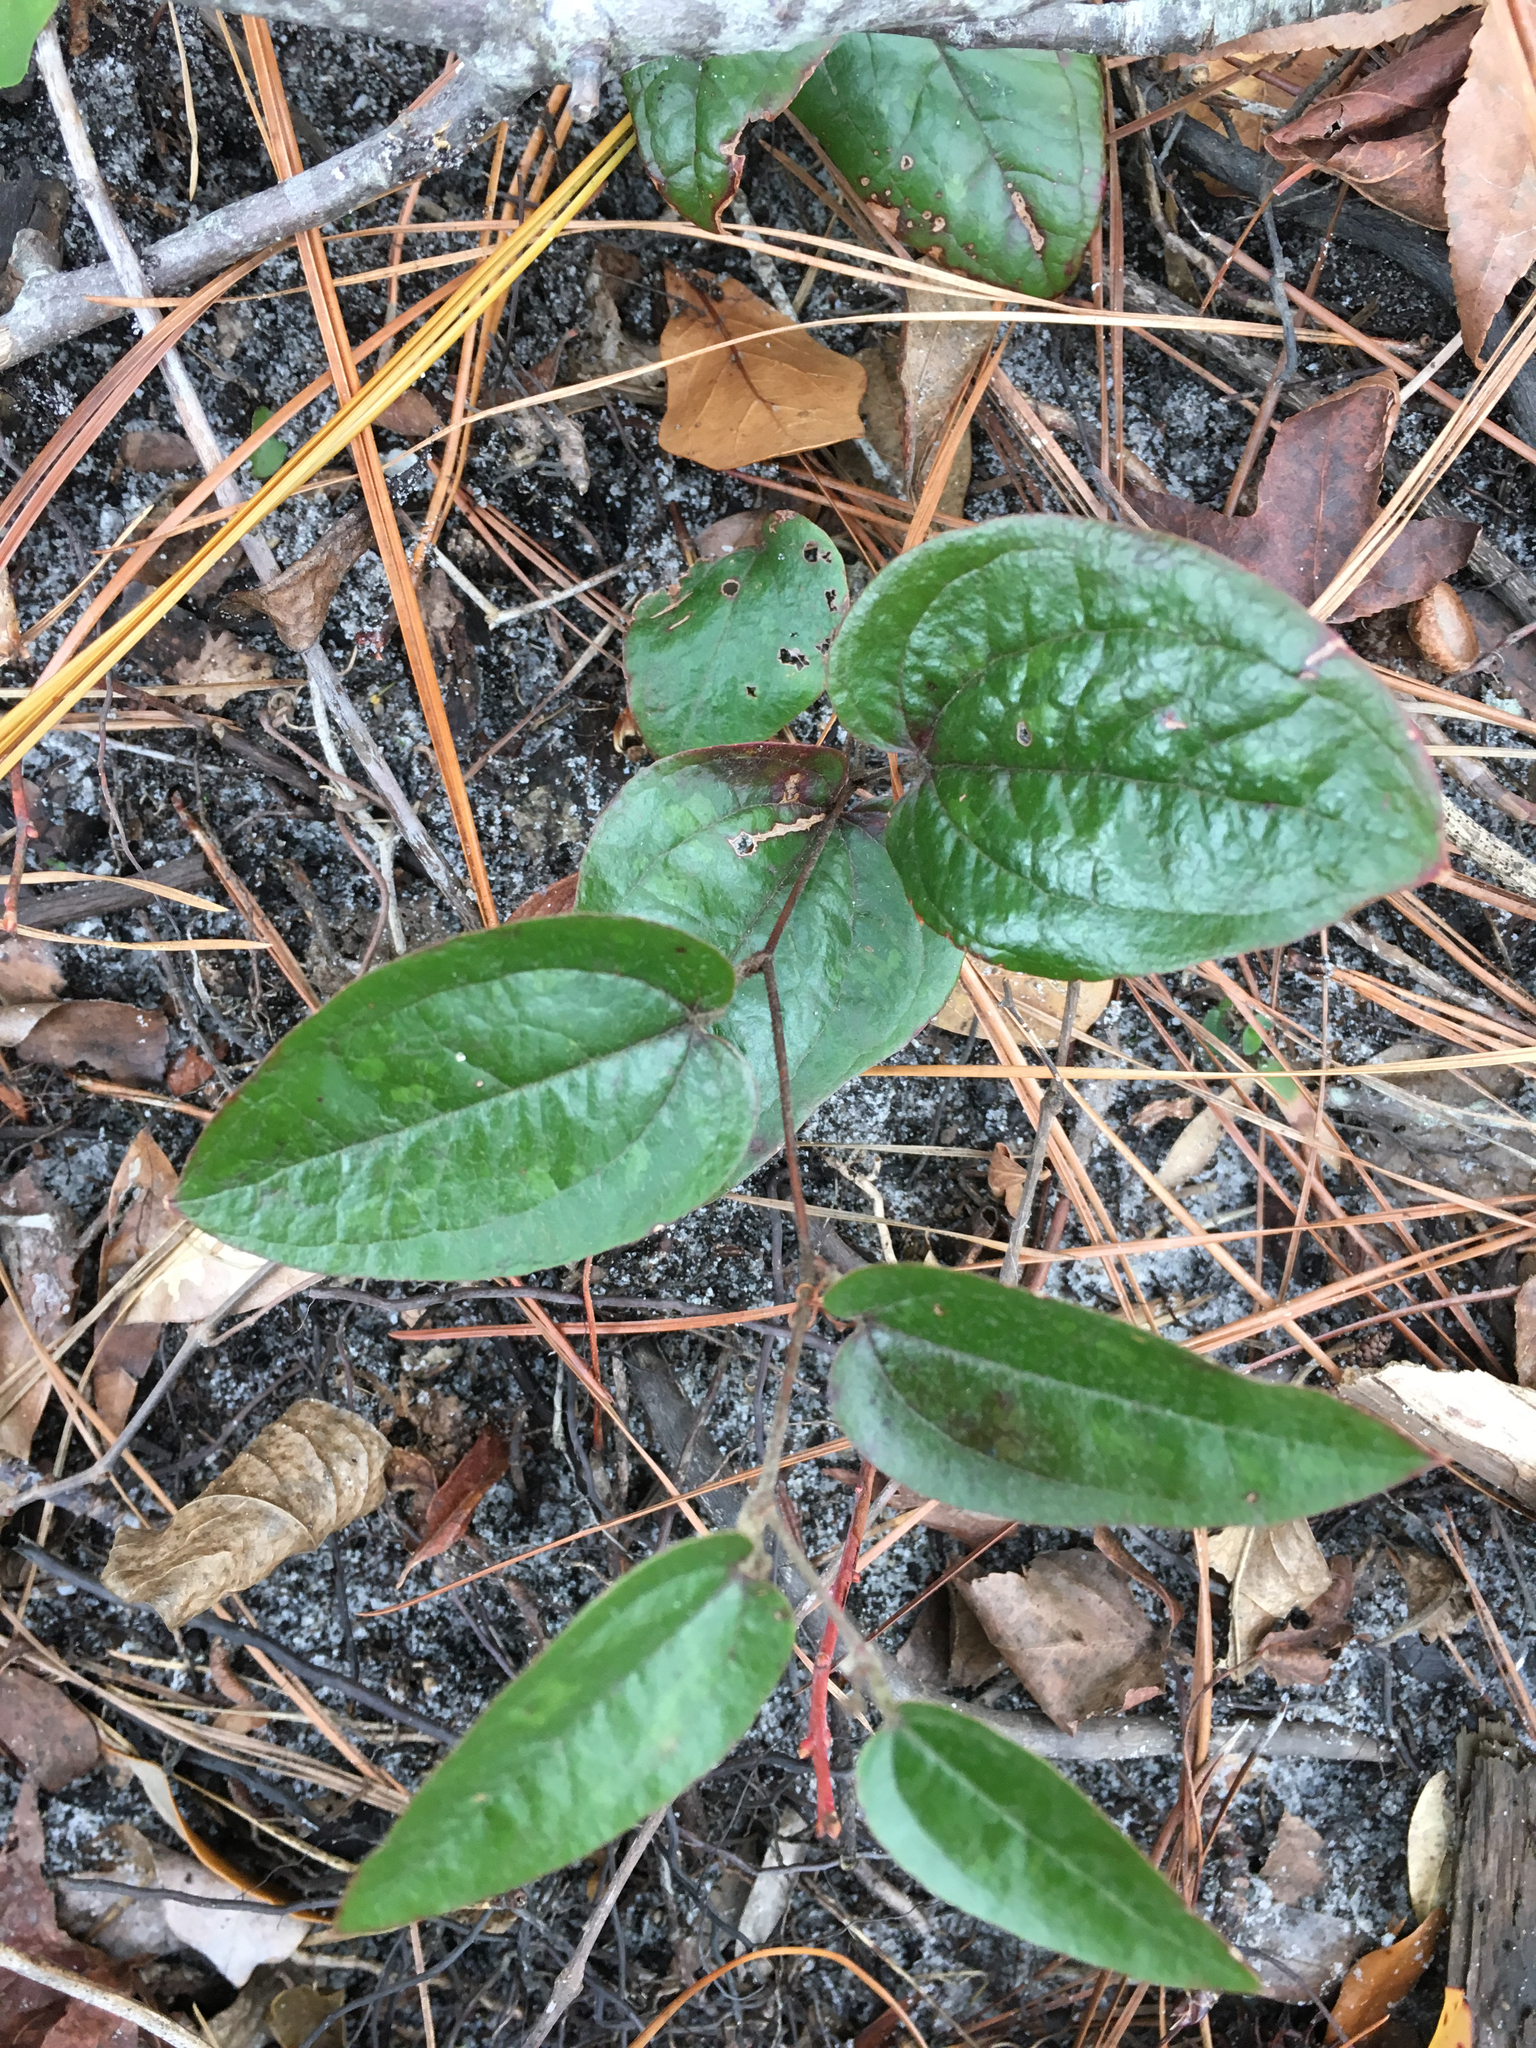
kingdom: Plantae
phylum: Tracheophyta
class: Liliopsida
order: Liliales
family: Smilacaceae
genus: Smilax
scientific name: Smilax pumila
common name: Sarsaparilla-vine
